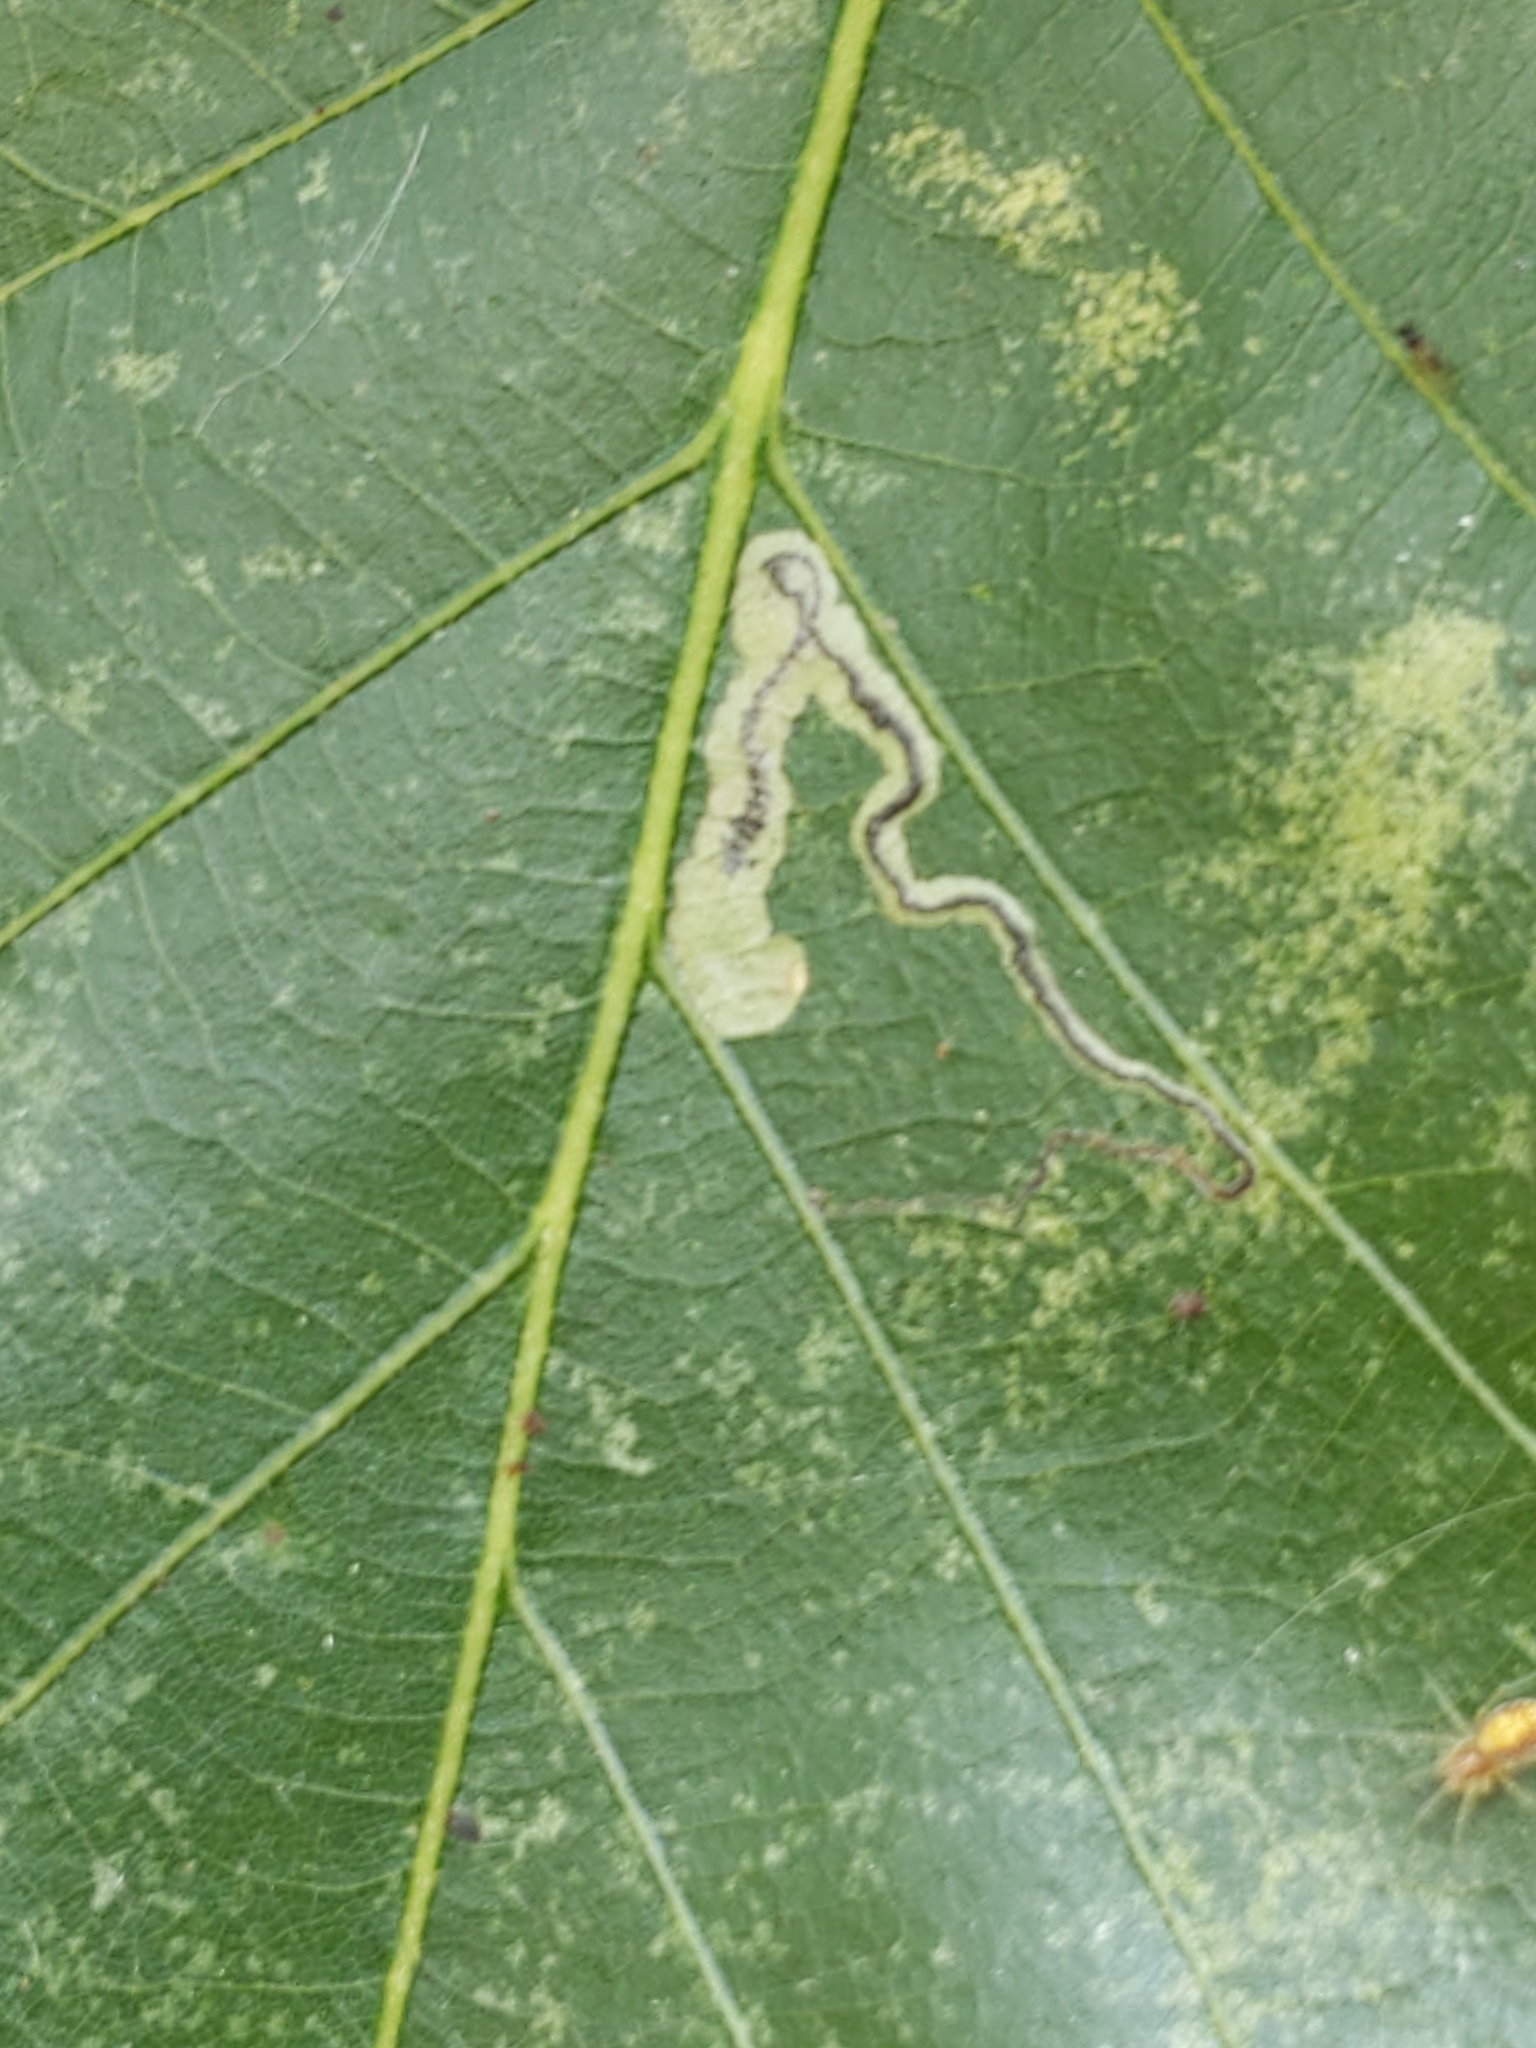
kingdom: Animalia
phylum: Arthropoda
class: Insecta
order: Lepidoptera
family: Nepticulidae
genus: Stigmella
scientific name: Stigmella
